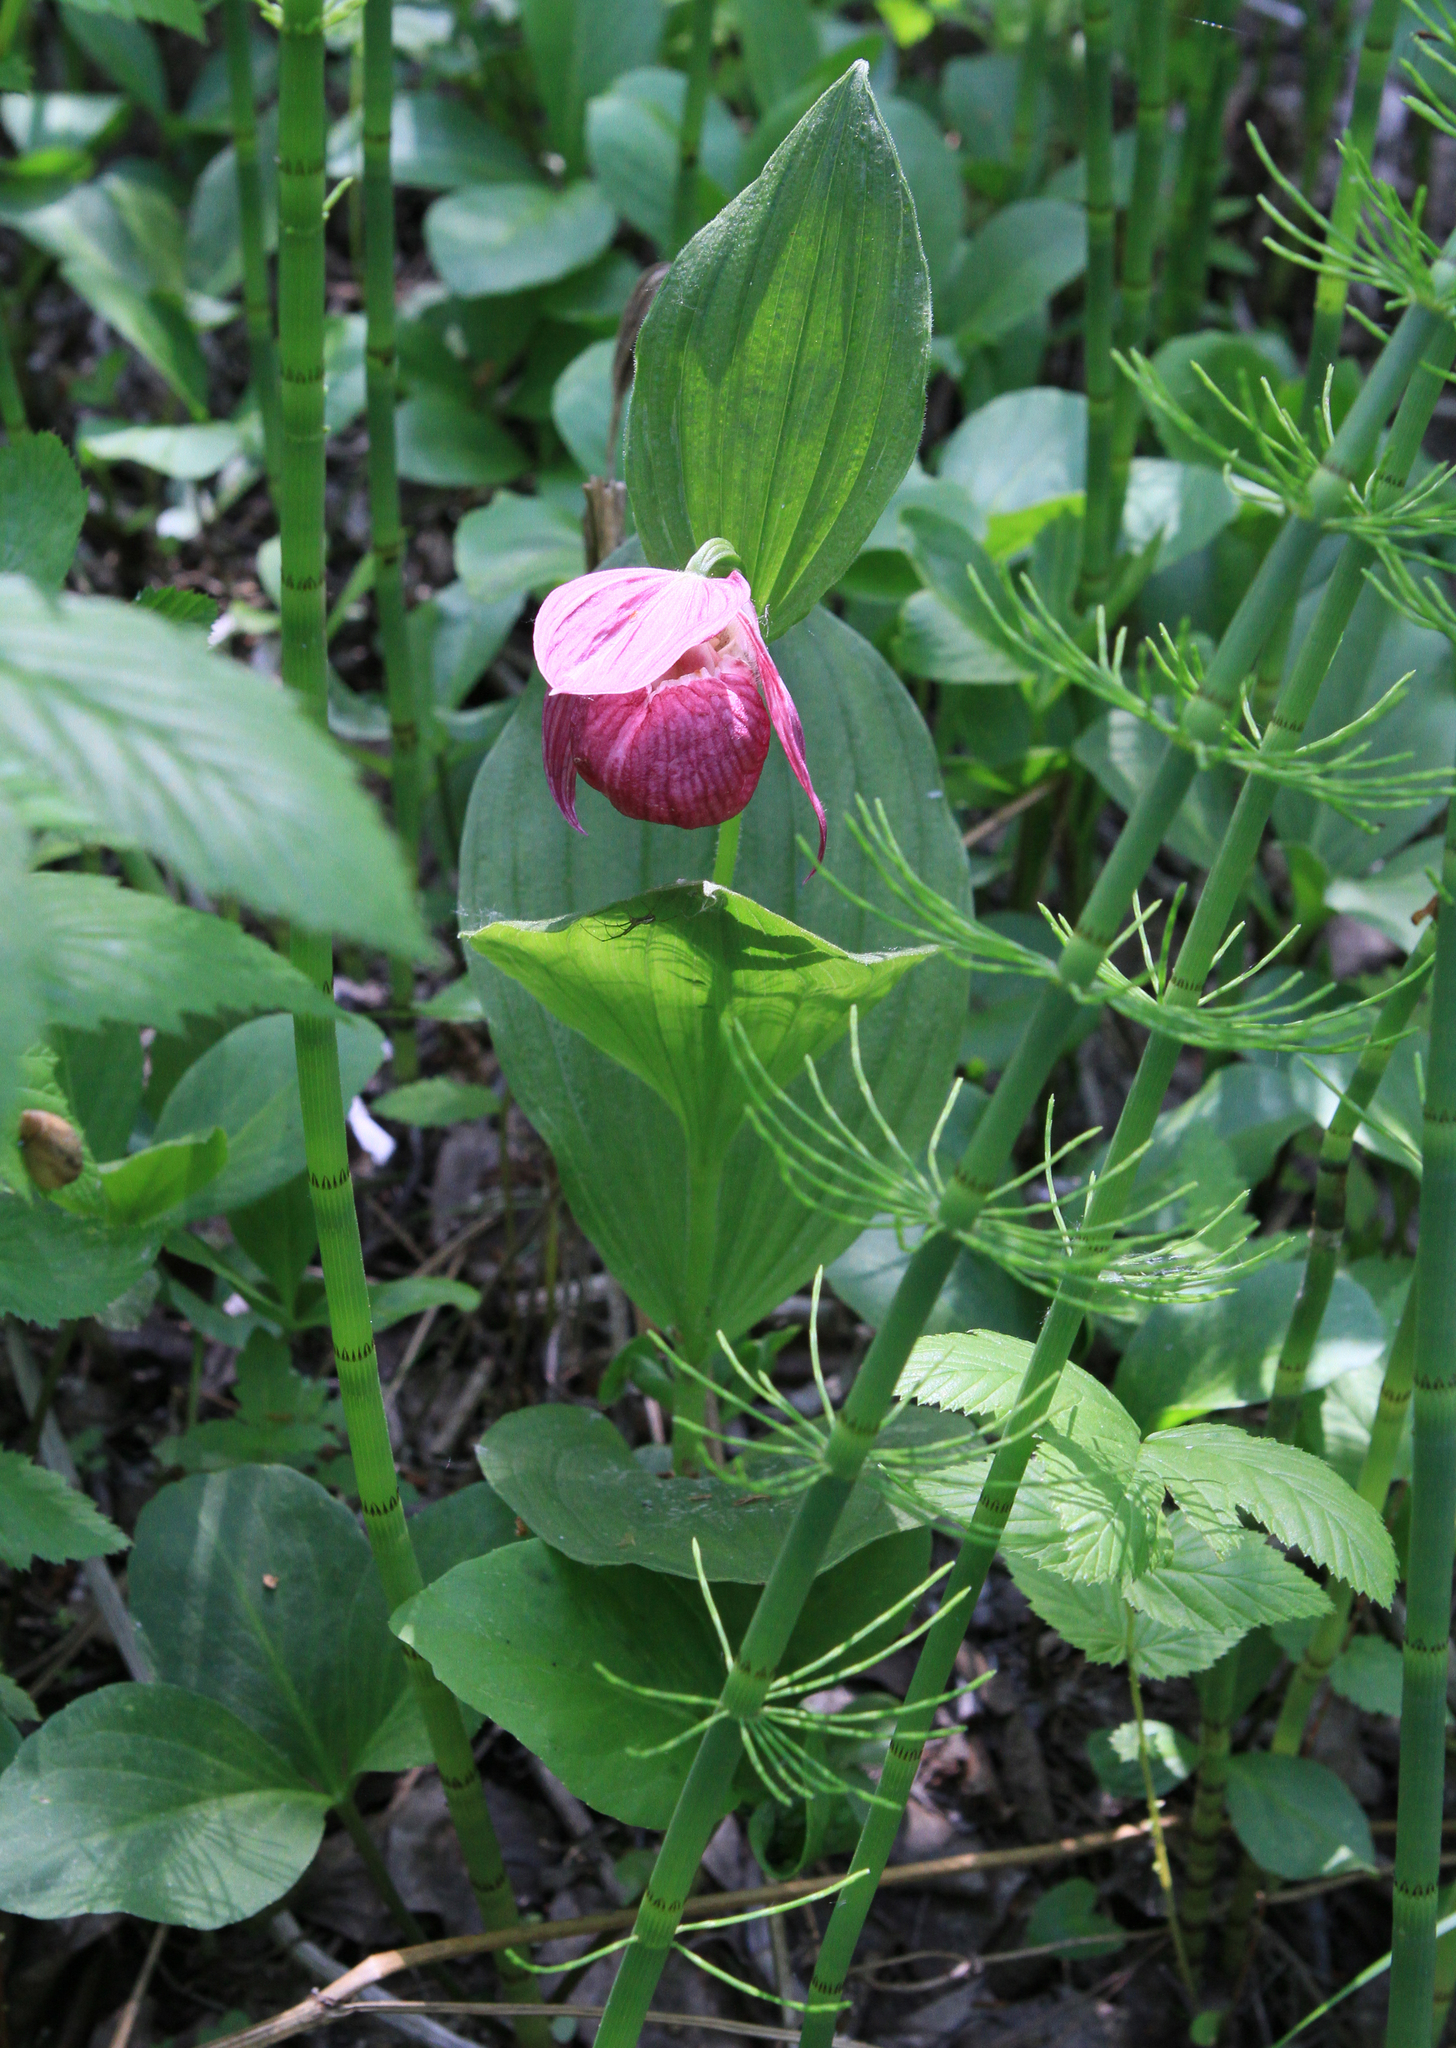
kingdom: Plantae
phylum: Tracheophyta
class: Liliopsida
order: Asparagales
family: Orchidaceae
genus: Cypripedium
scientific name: Cypripedium macranthos
